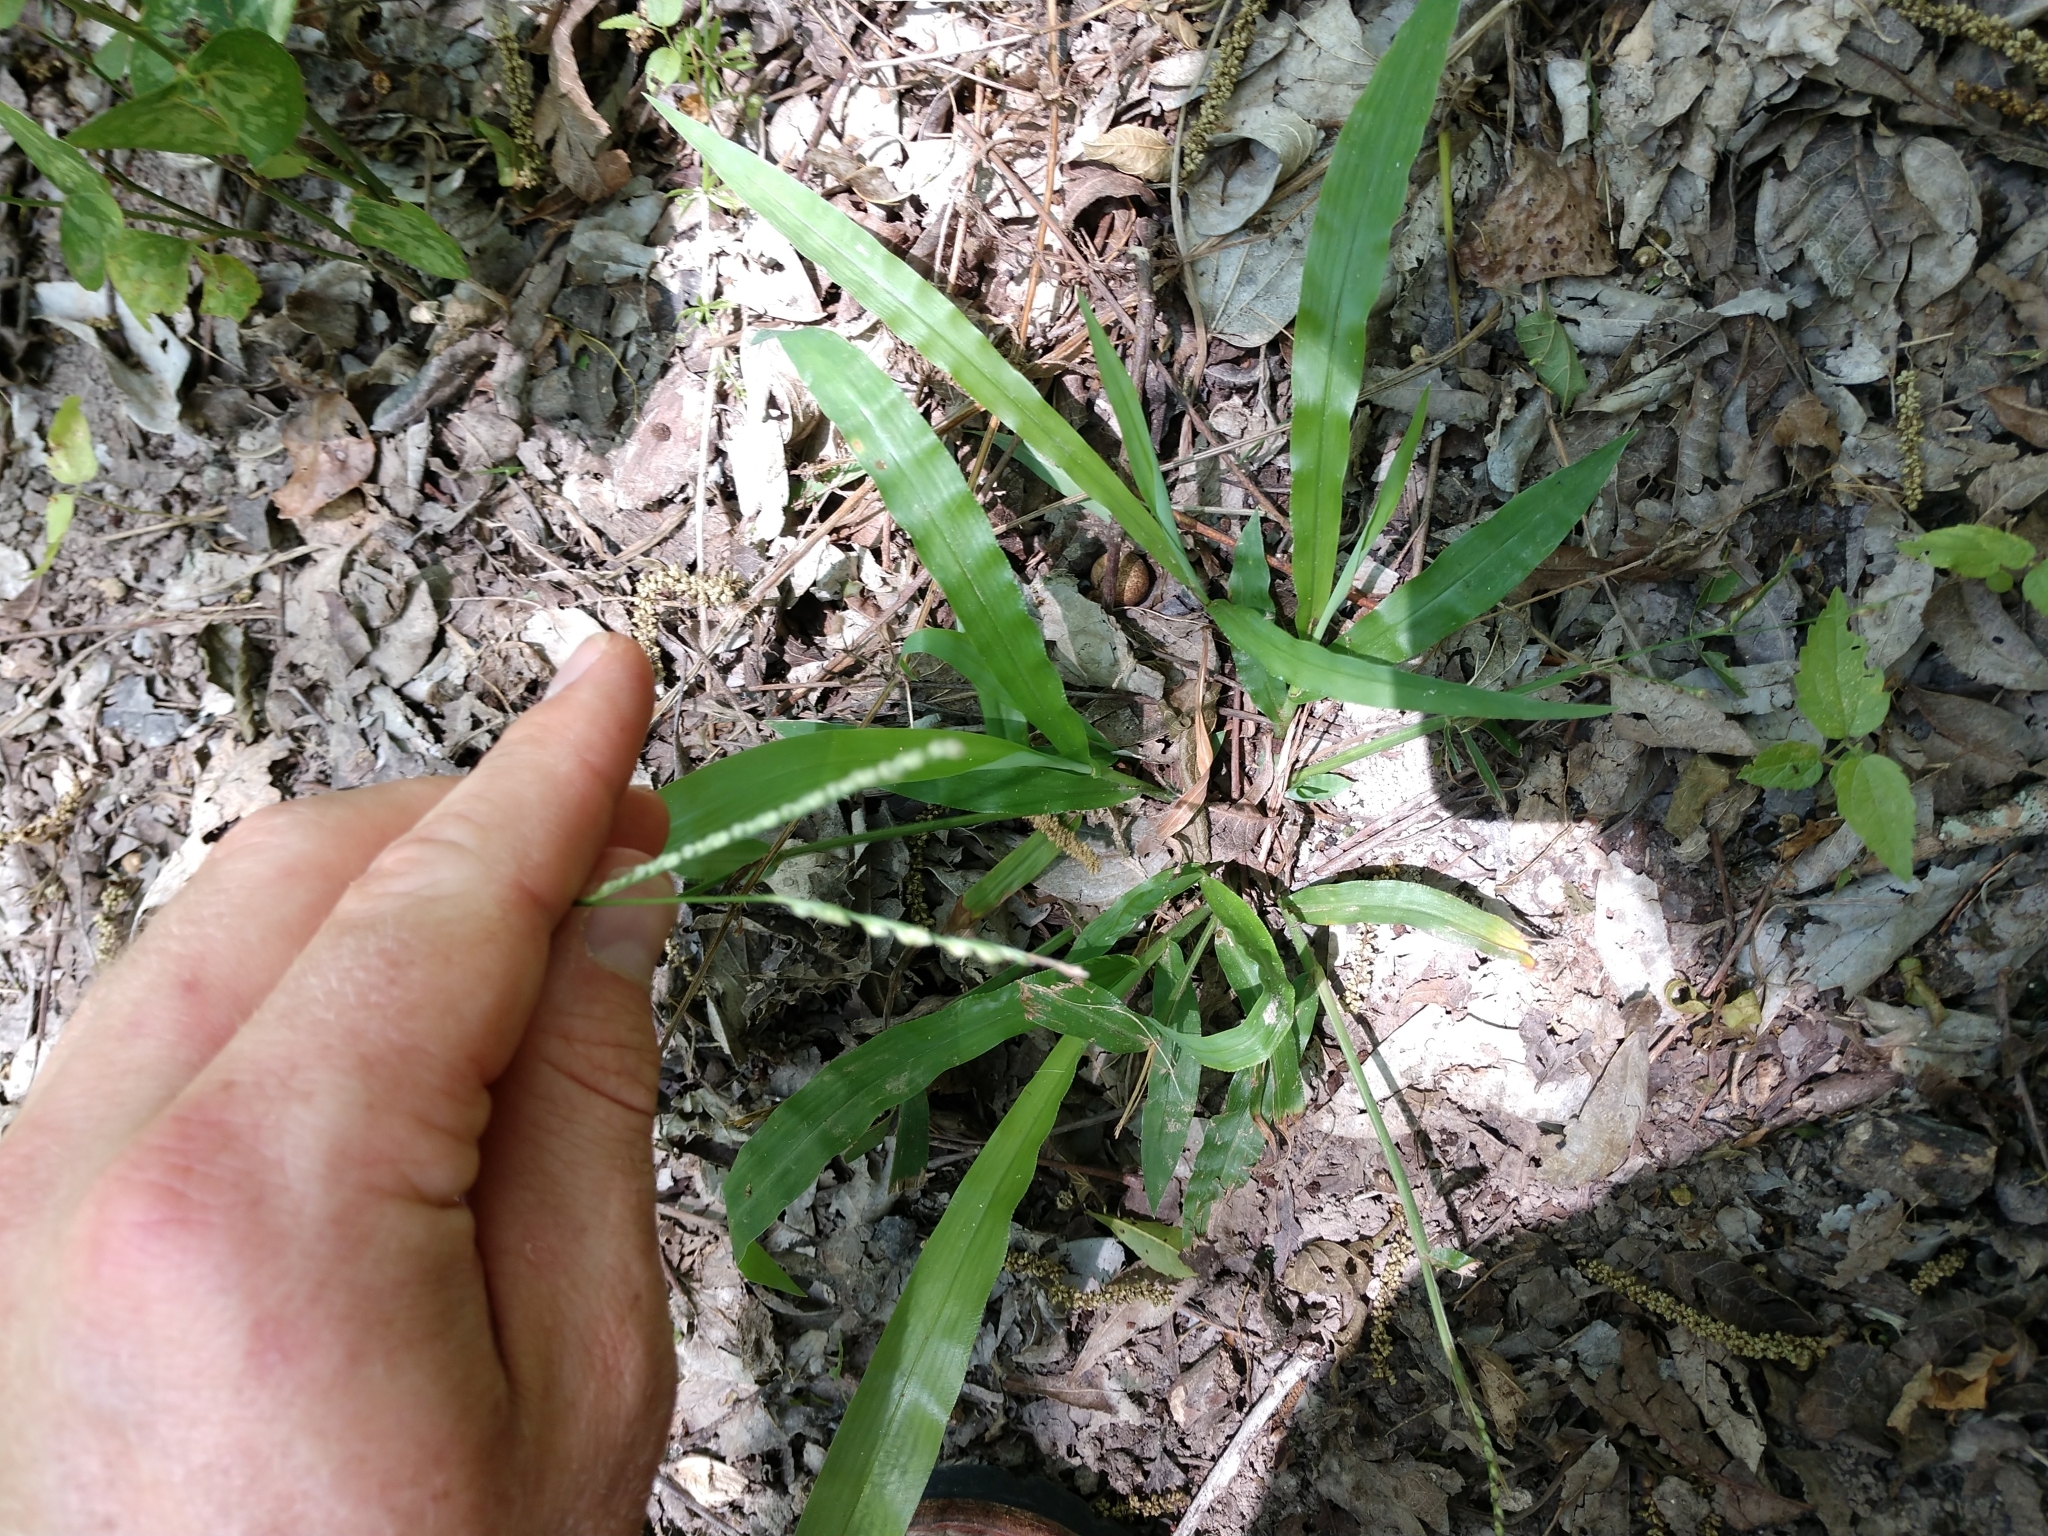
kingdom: Plantae
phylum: Tracheophyta
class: Liliopsida
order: Poales
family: Poaceae
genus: Paspalum
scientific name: Paspalum langei
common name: Rusty-seed paspalum
